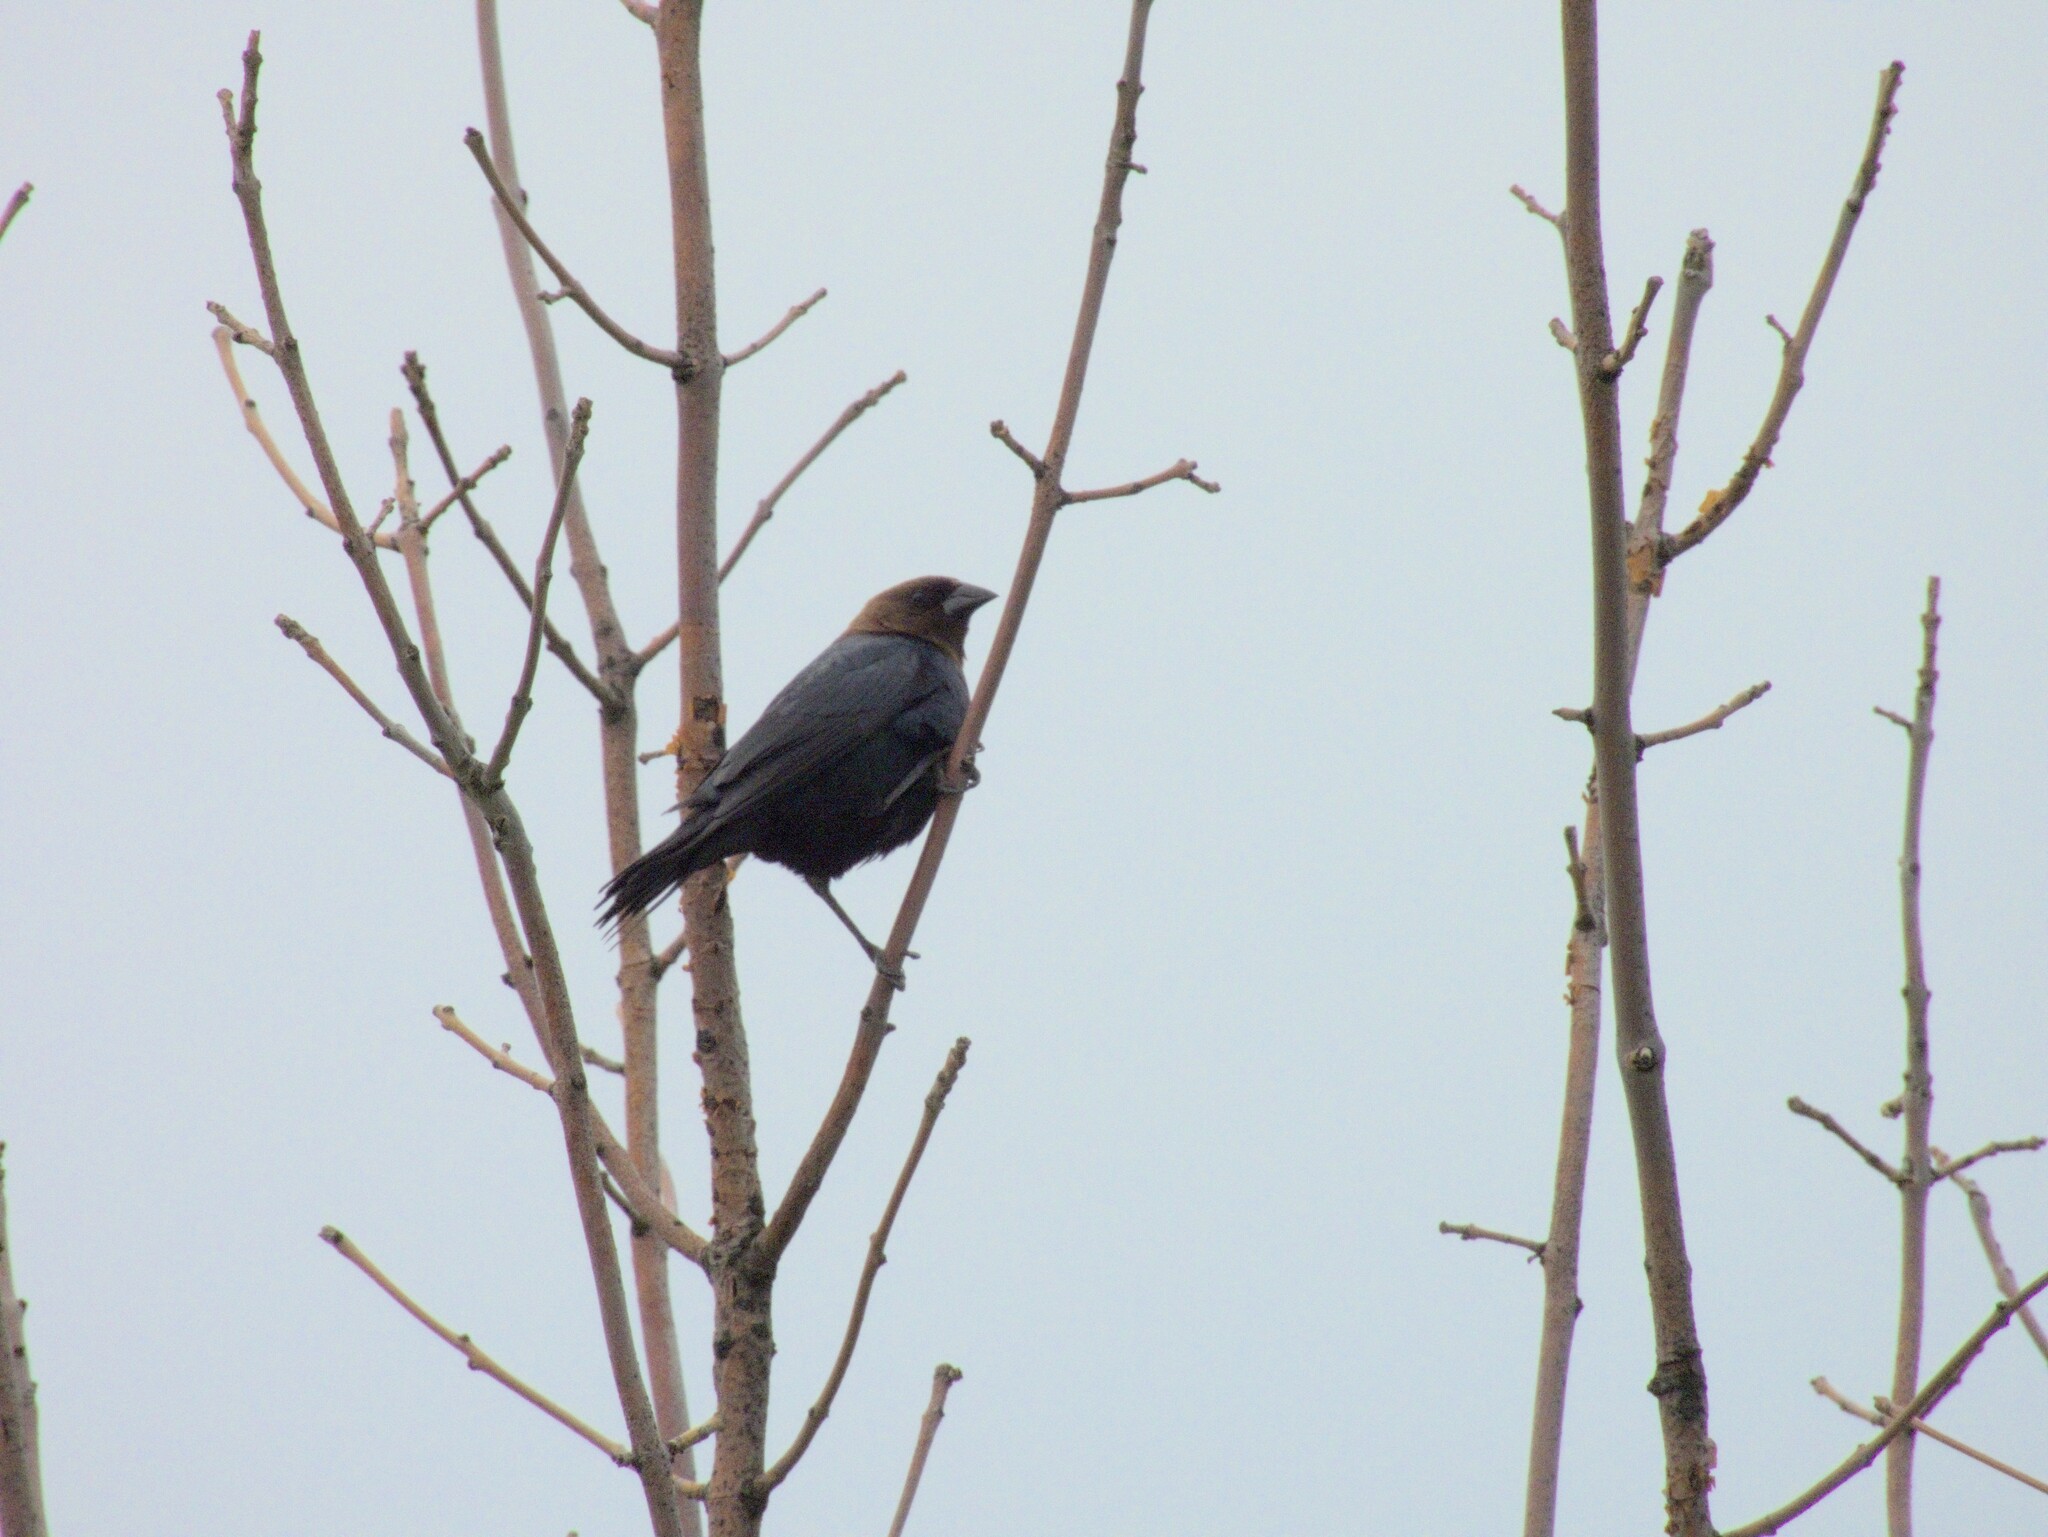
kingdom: Animalia
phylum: Chordata
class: Aves
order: Passeriformes
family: Icteridae
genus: Molothrus
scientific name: Molothrus ater
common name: Brown-headed cowbird
